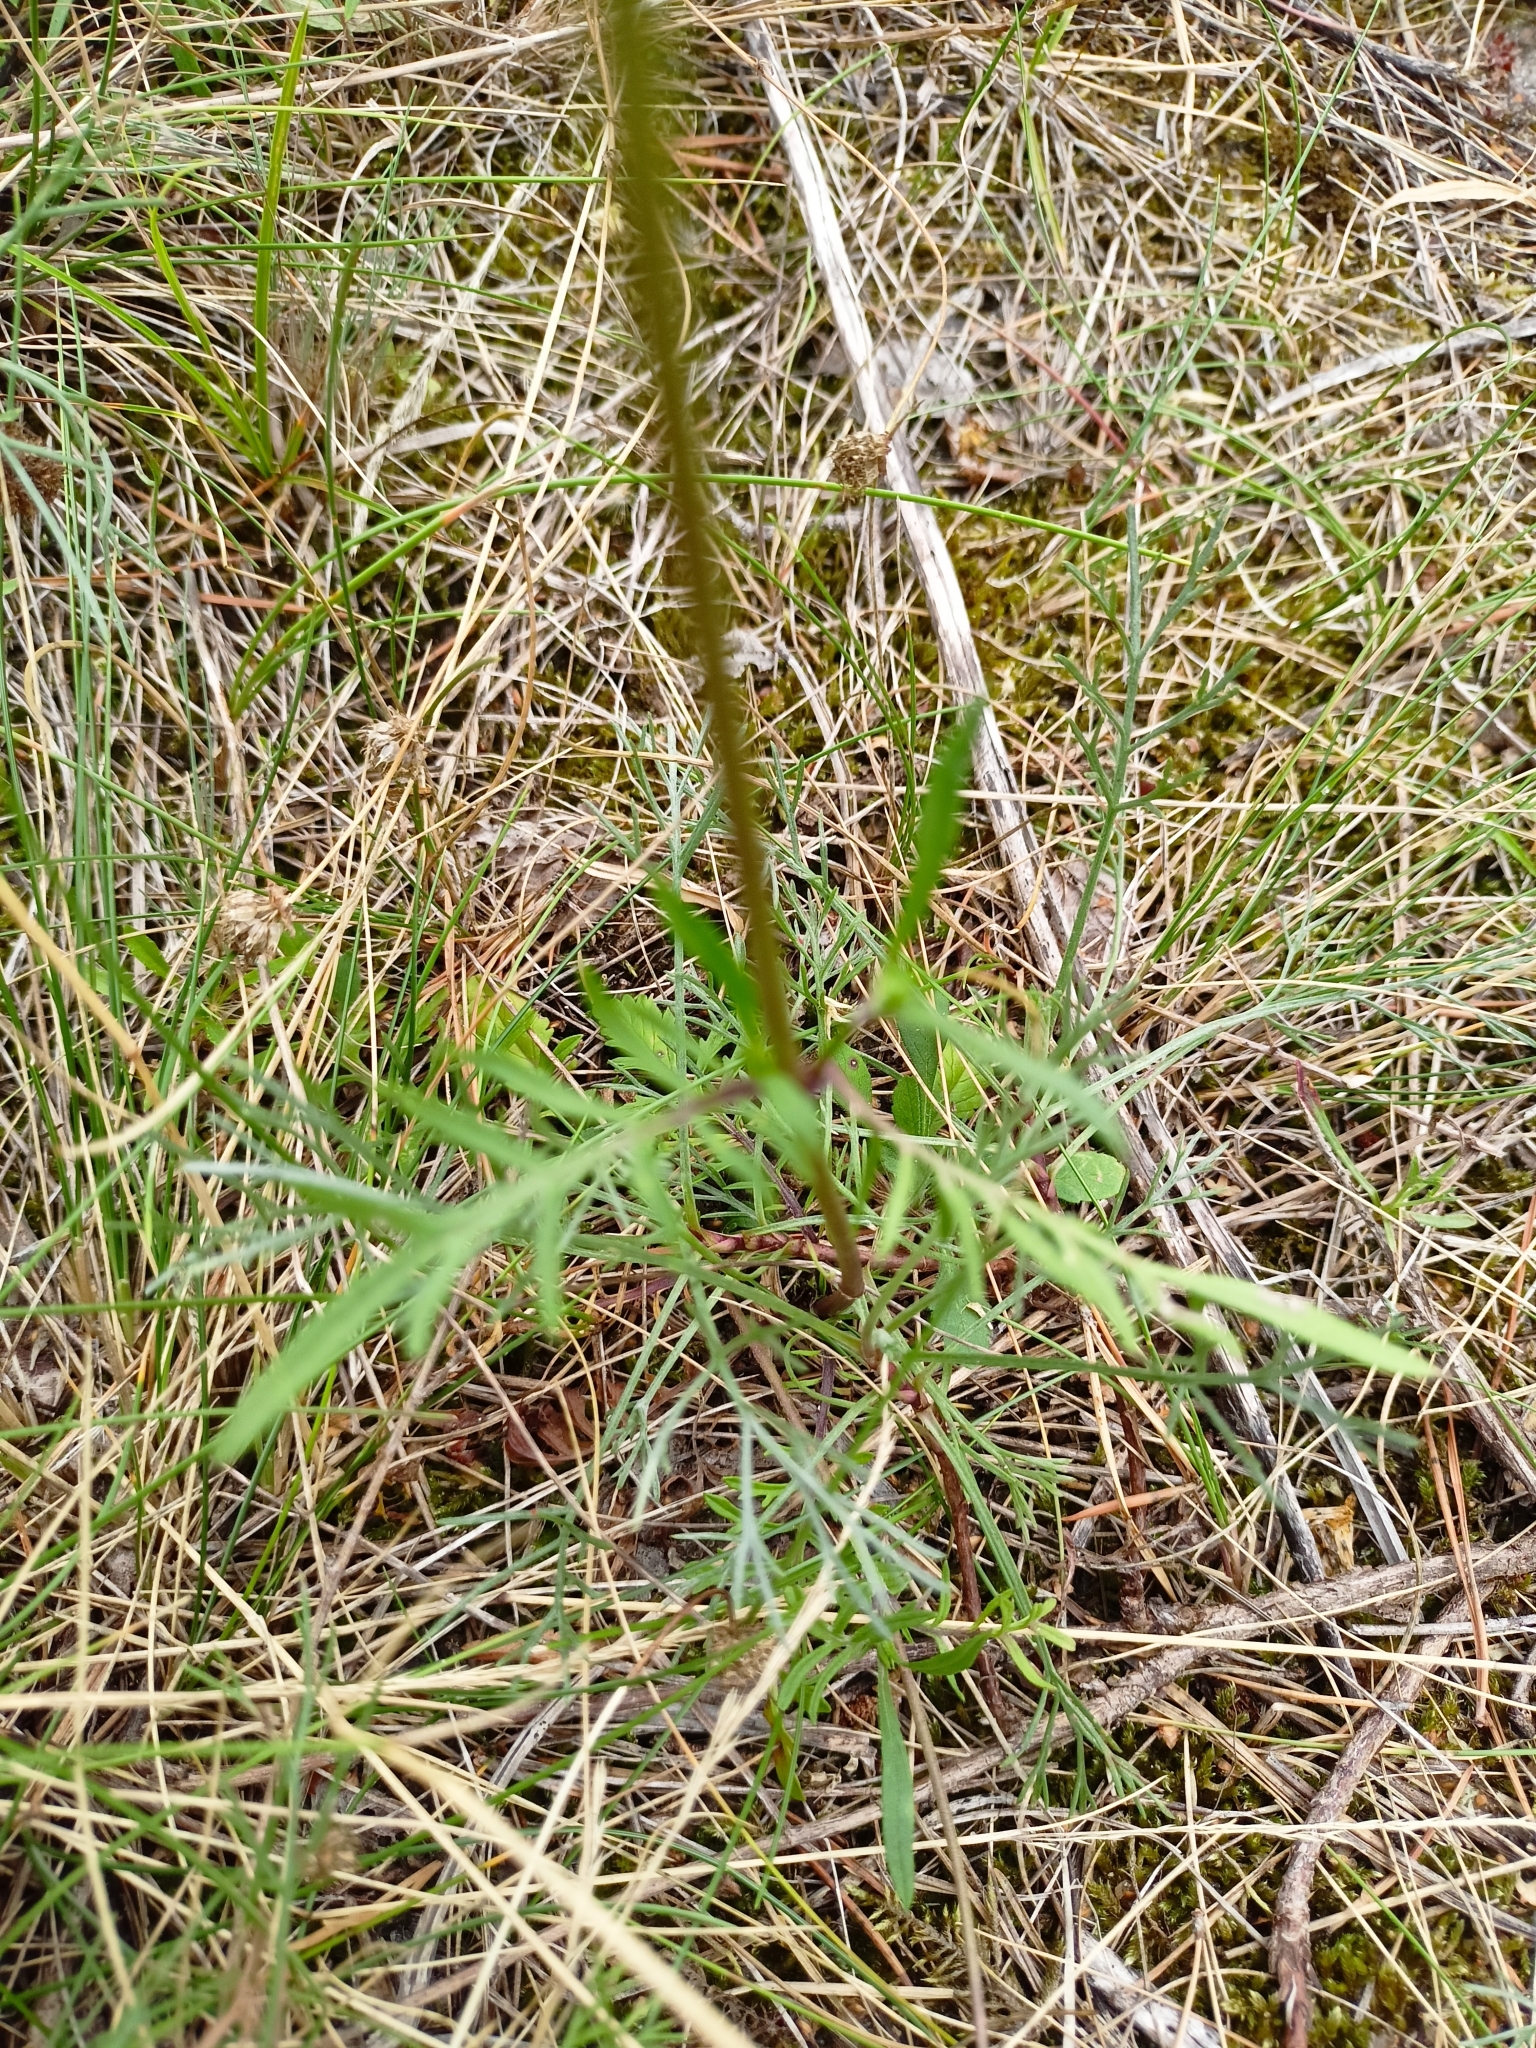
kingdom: Plantae
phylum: Tracheophyta
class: Magnoliopsida
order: Dipsacales
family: Caprifoliaceae
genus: Scabiosa
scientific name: Scabiosa ochroleuca
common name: Cream pincushions
